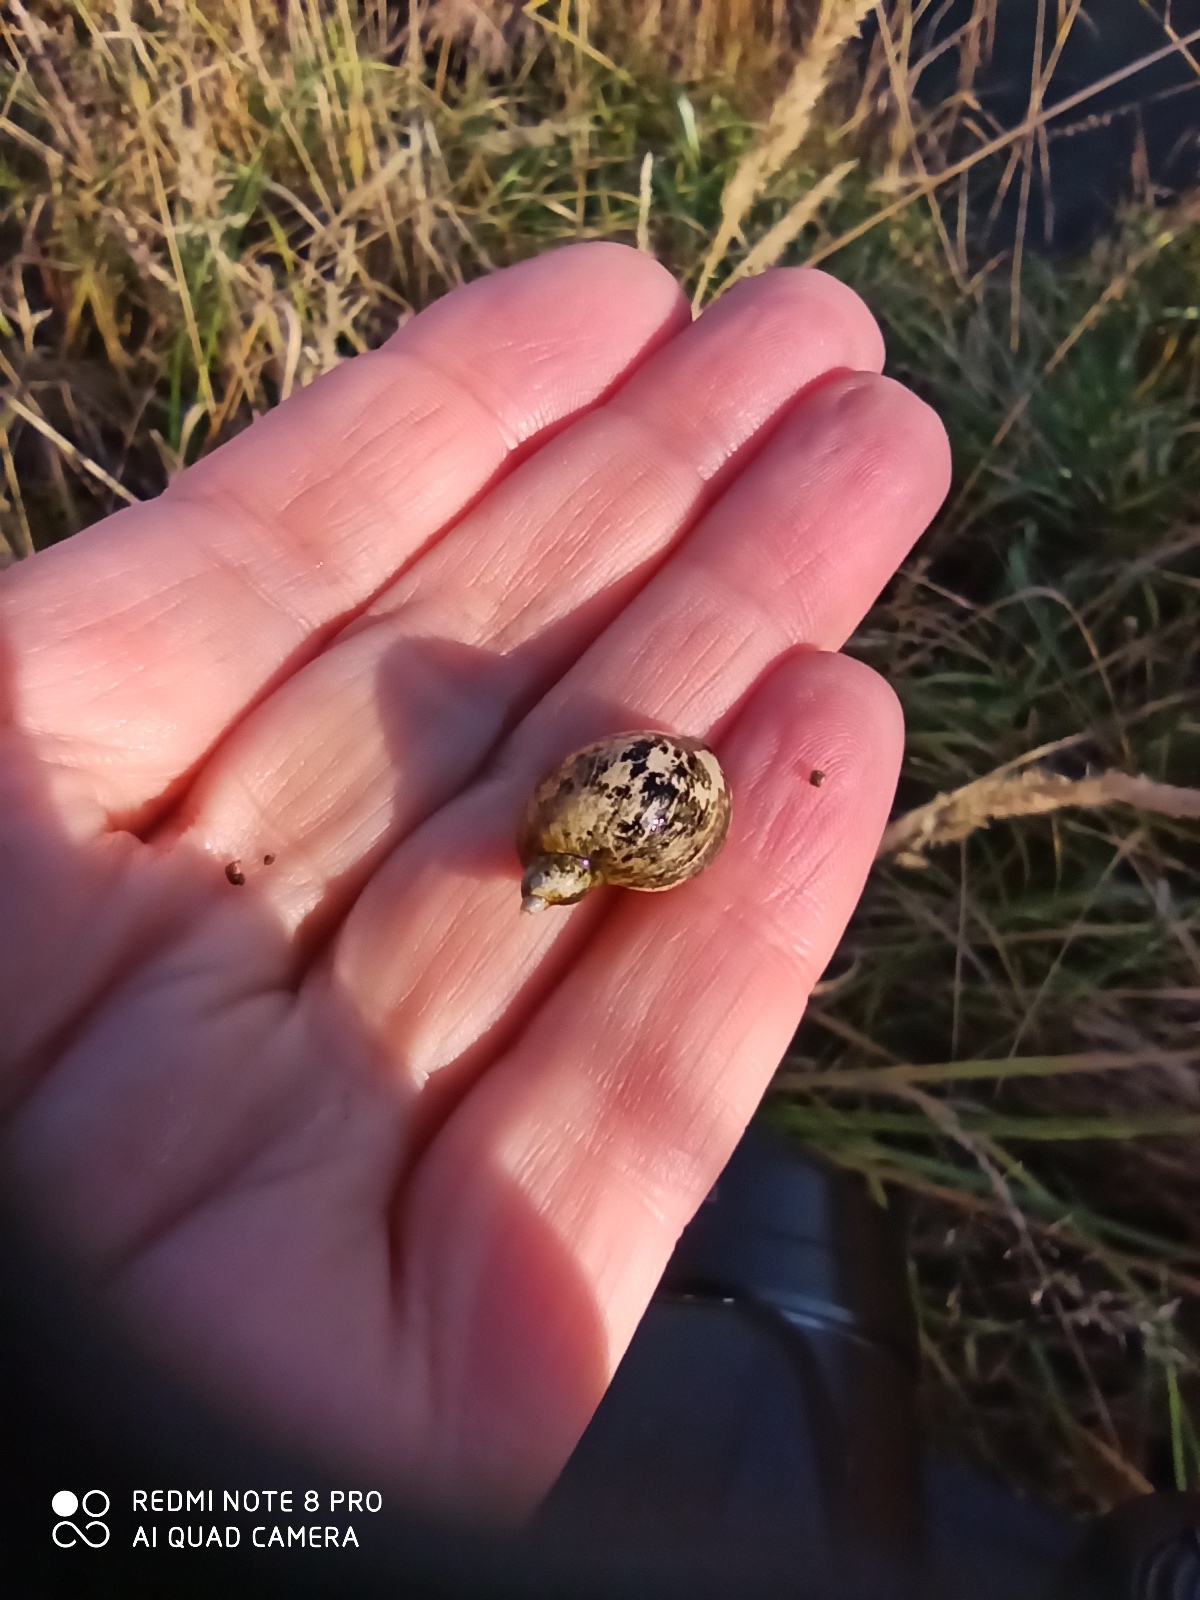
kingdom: Animalia
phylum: Mollusca
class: Gastropoda
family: Lymnaeidae
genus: Radix
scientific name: Radix auricularia
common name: Ear pond snail
